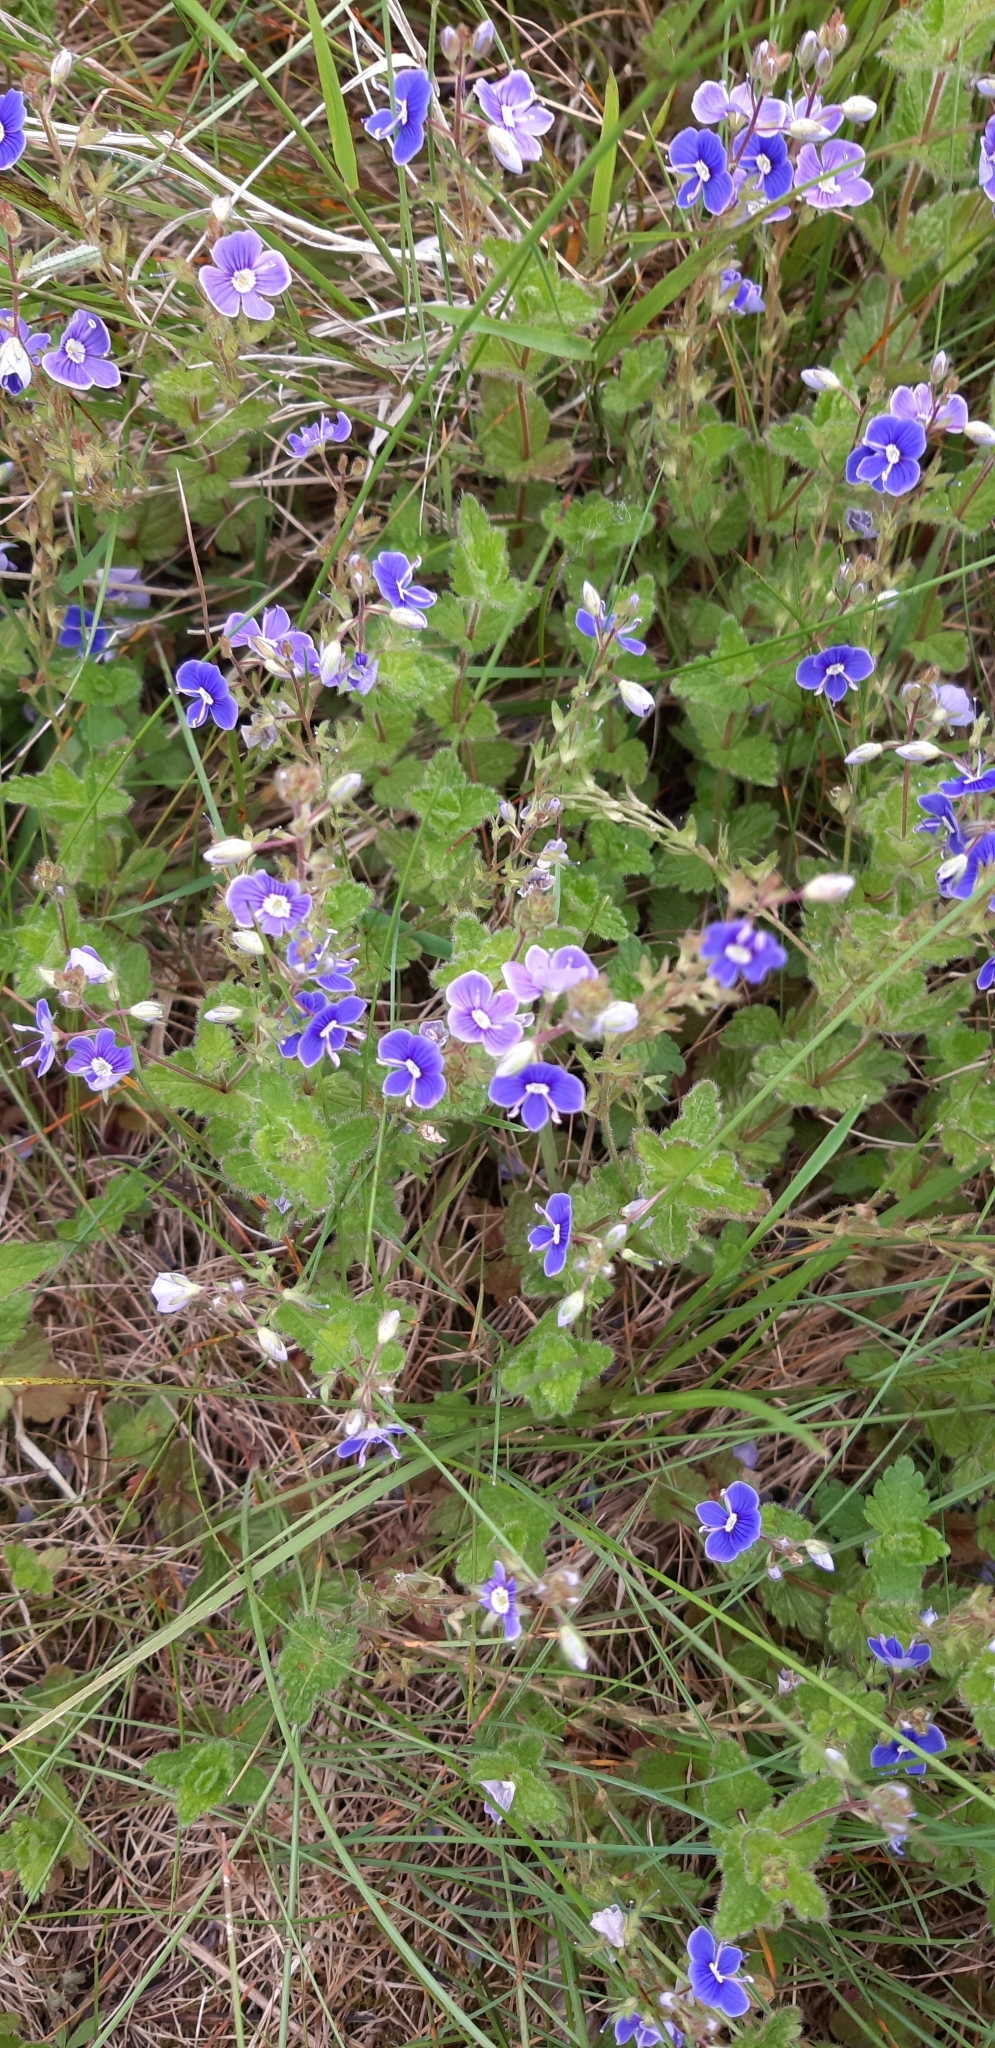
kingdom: Plantae
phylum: Tracheophyta
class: Magnoliopsida
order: Lamiales
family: Plantaginaceae
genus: Veronica
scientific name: Veronica chamaedrys
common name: Germander speedwell
